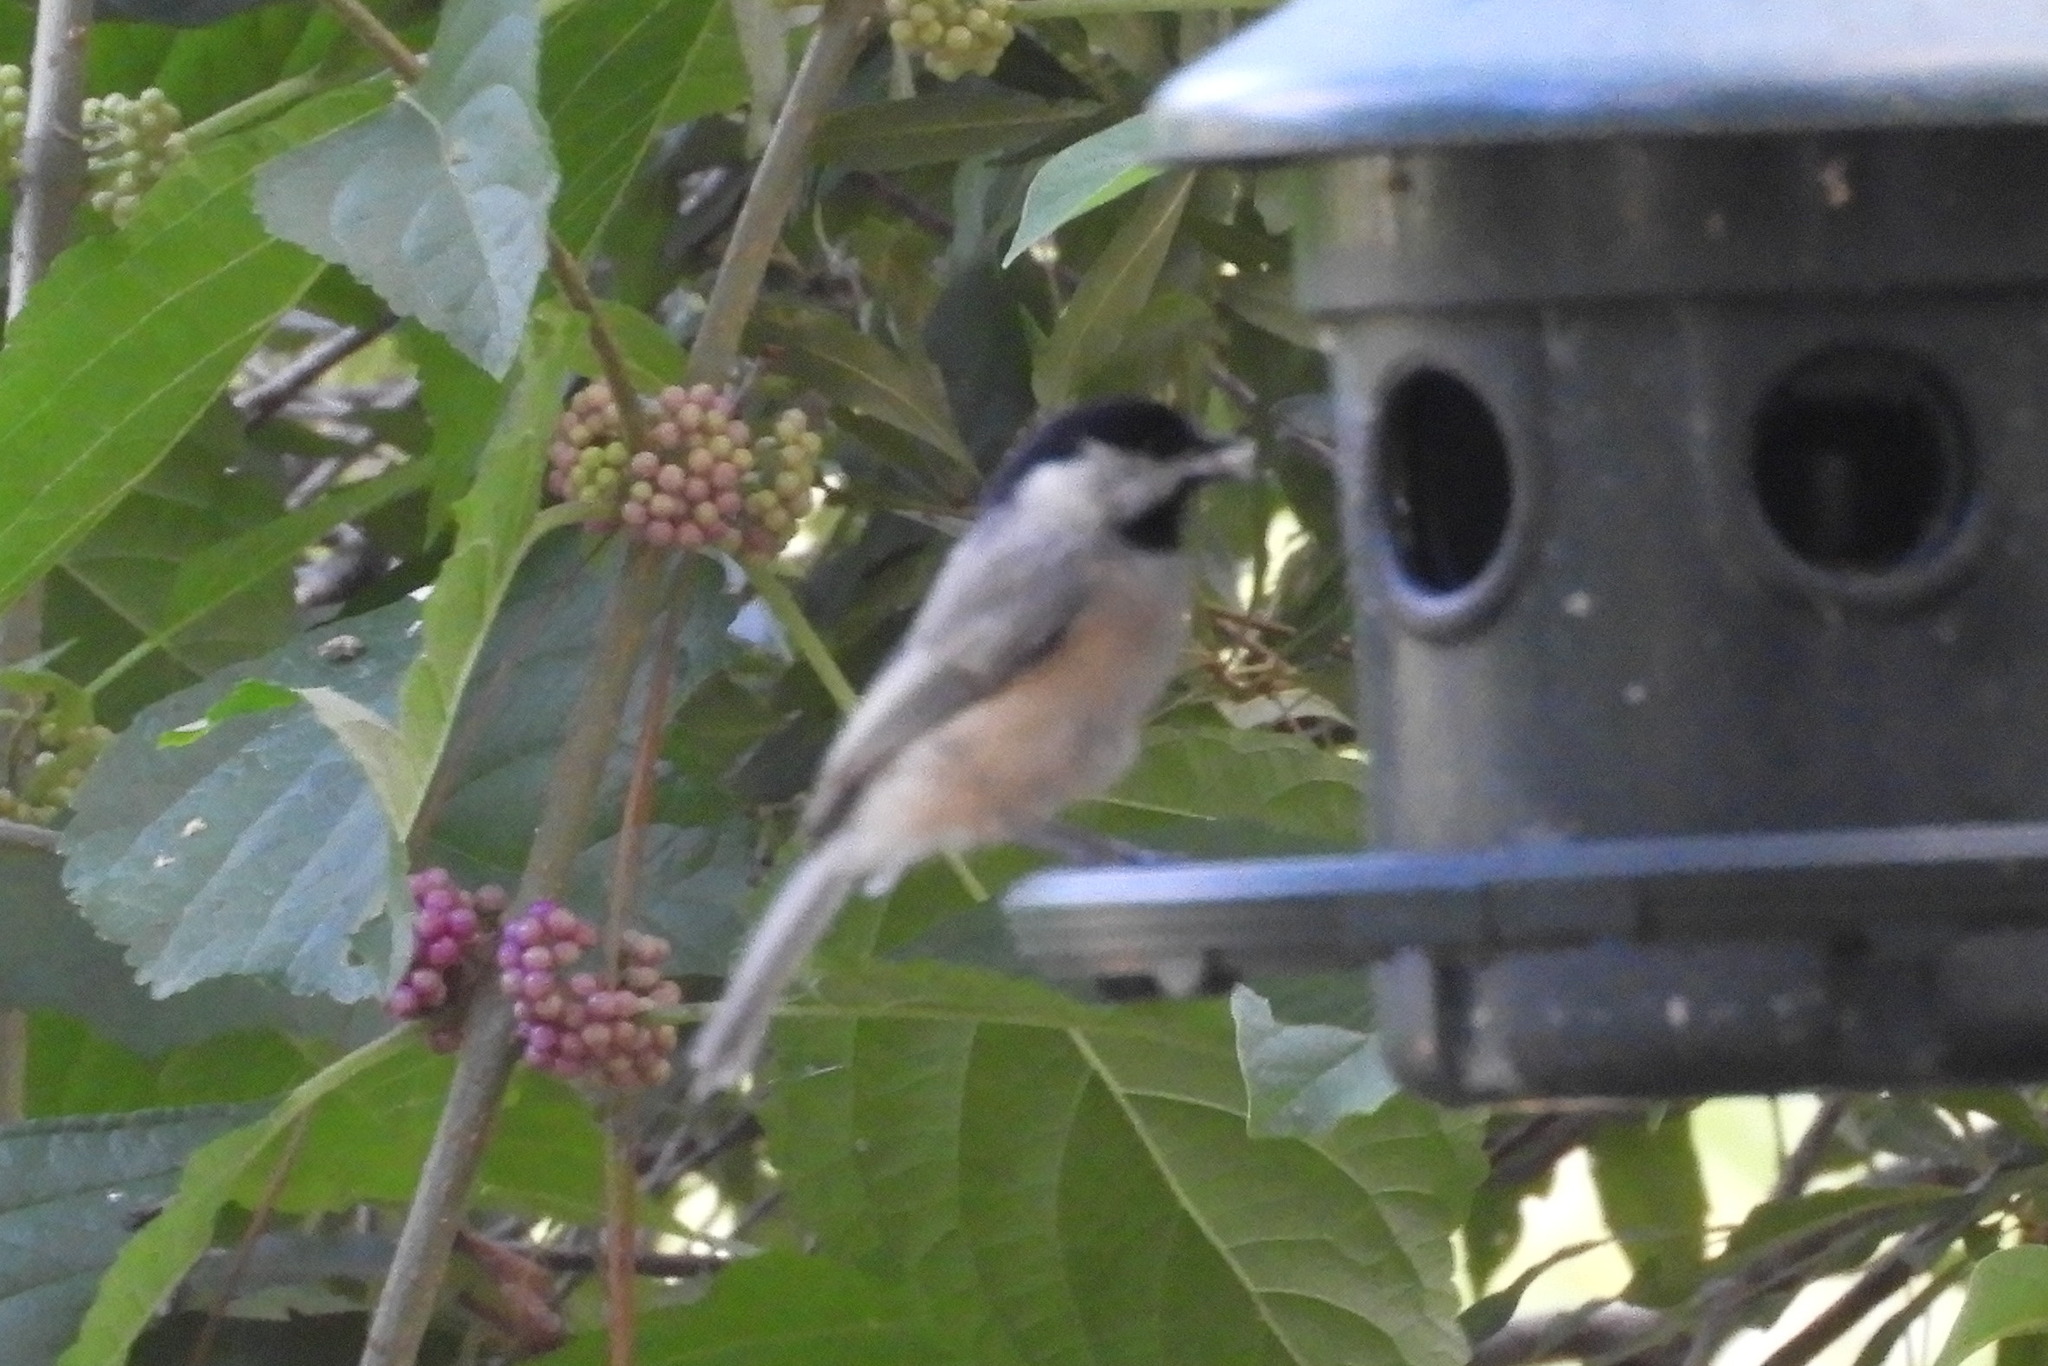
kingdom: Animalia
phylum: Chordata
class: Aves
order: Passeriformes
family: Paridae
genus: Poecile
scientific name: Poecile carolinensis
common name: Carolina chickadee
